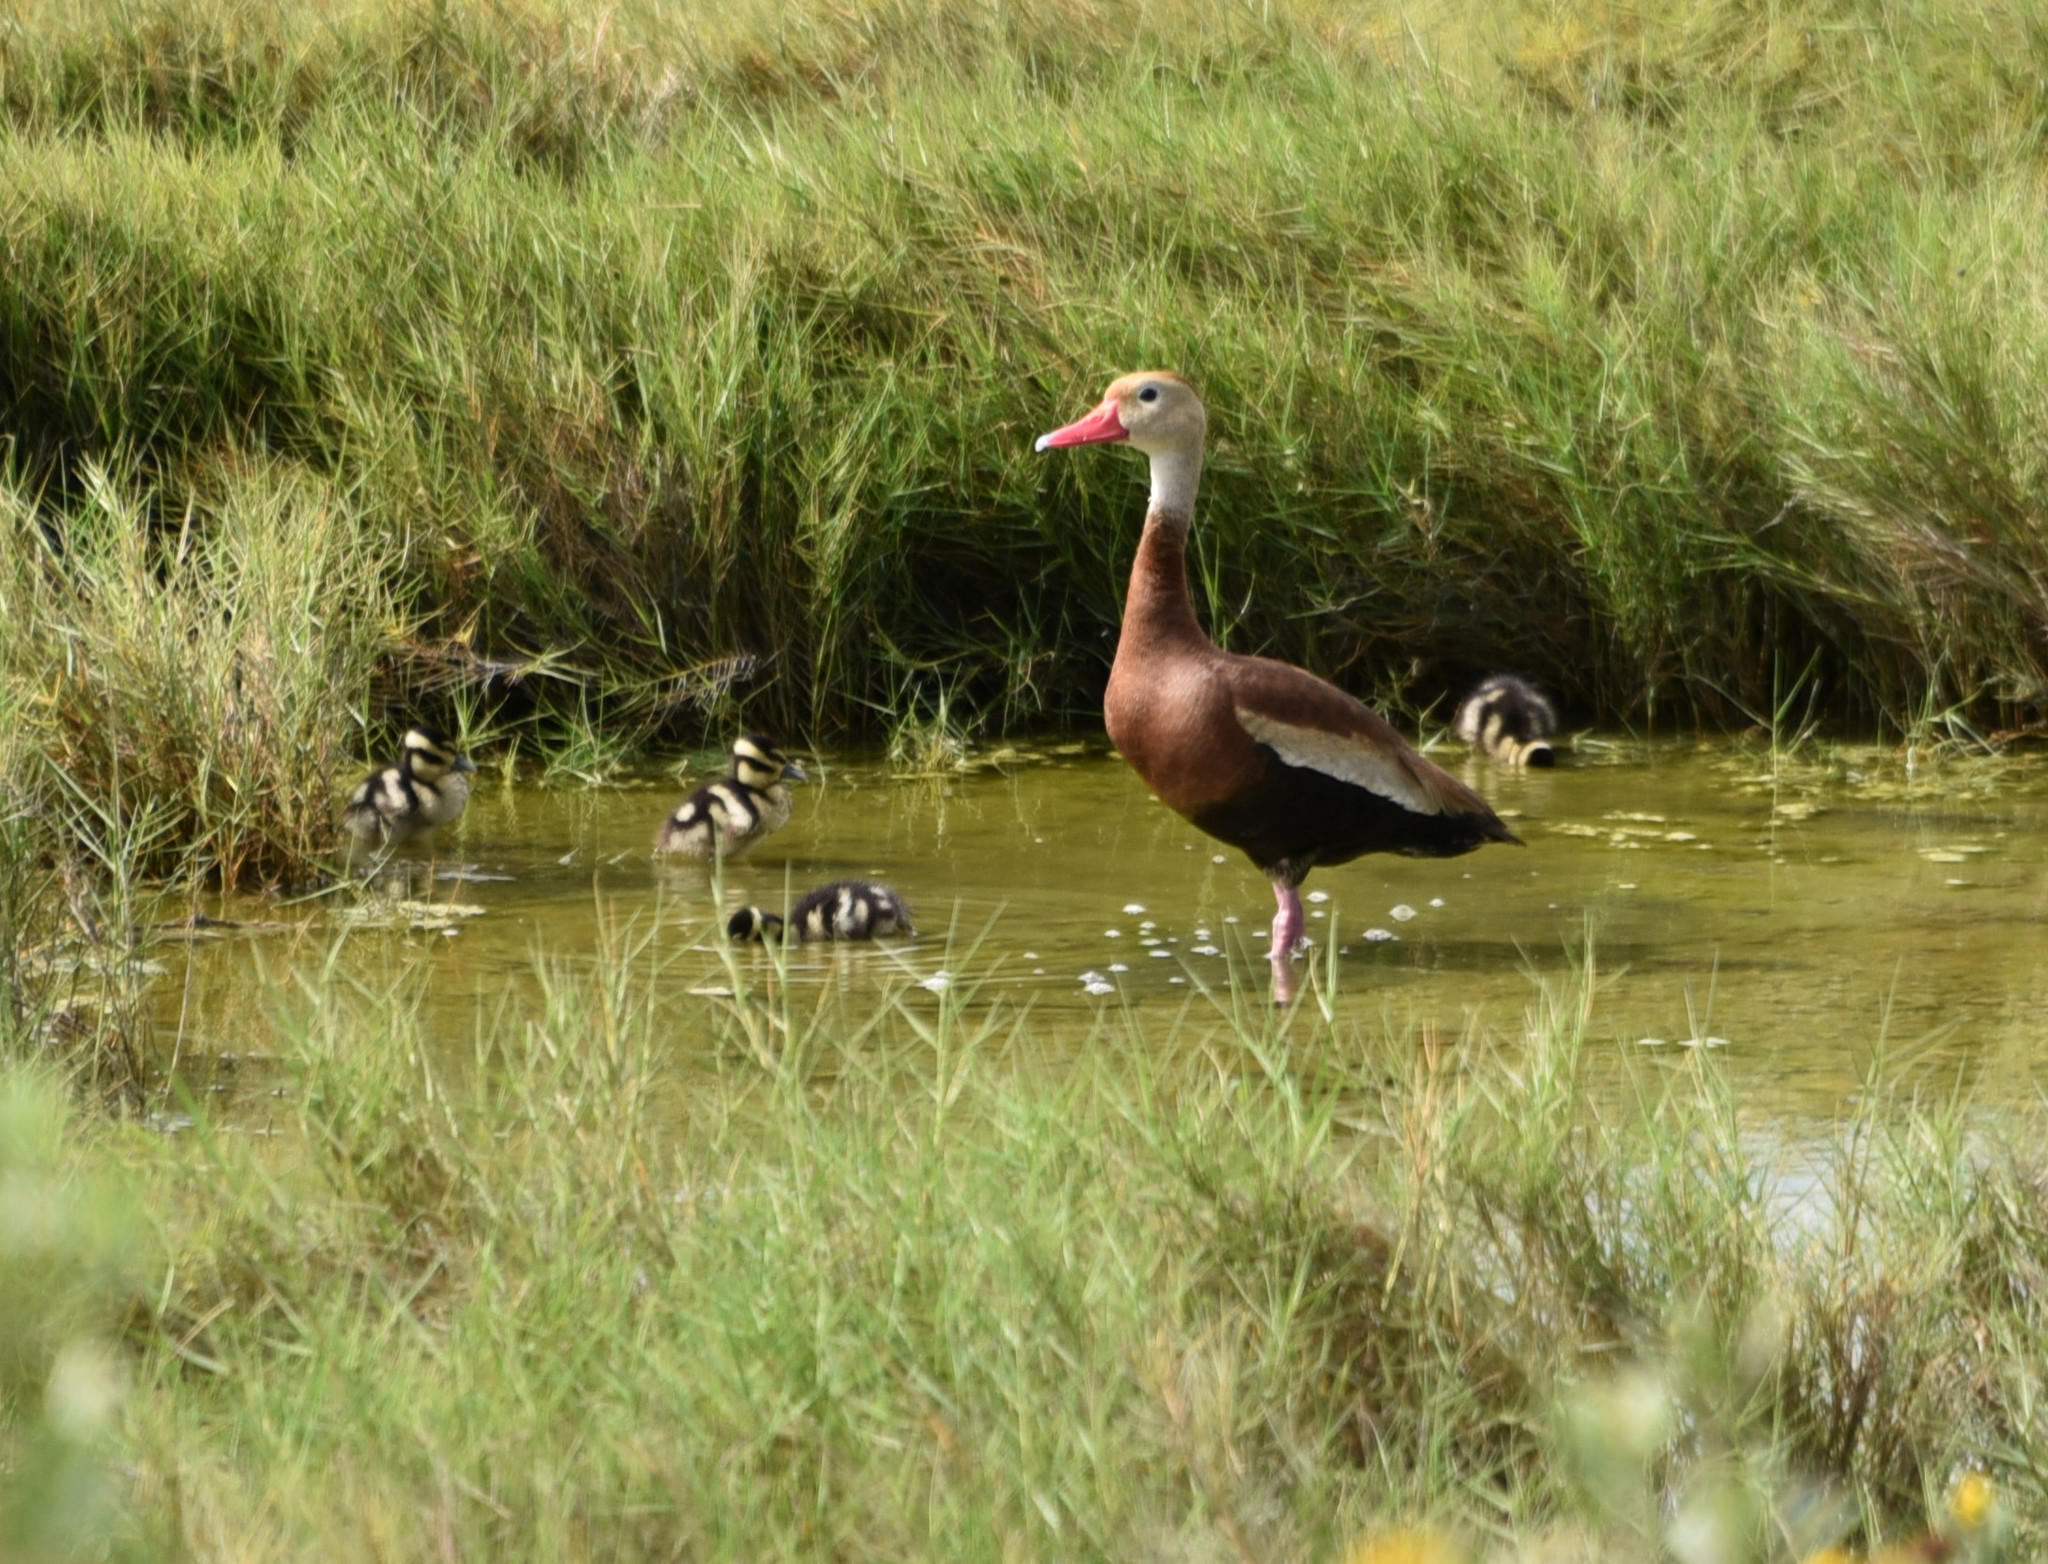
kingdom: Animalia
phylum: Chordata
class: Aves
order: Anseriformes
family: Anatidae
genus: Dendrocygna
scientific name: Dendrocygna autumnalis
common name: Black-bellied whistling duck
